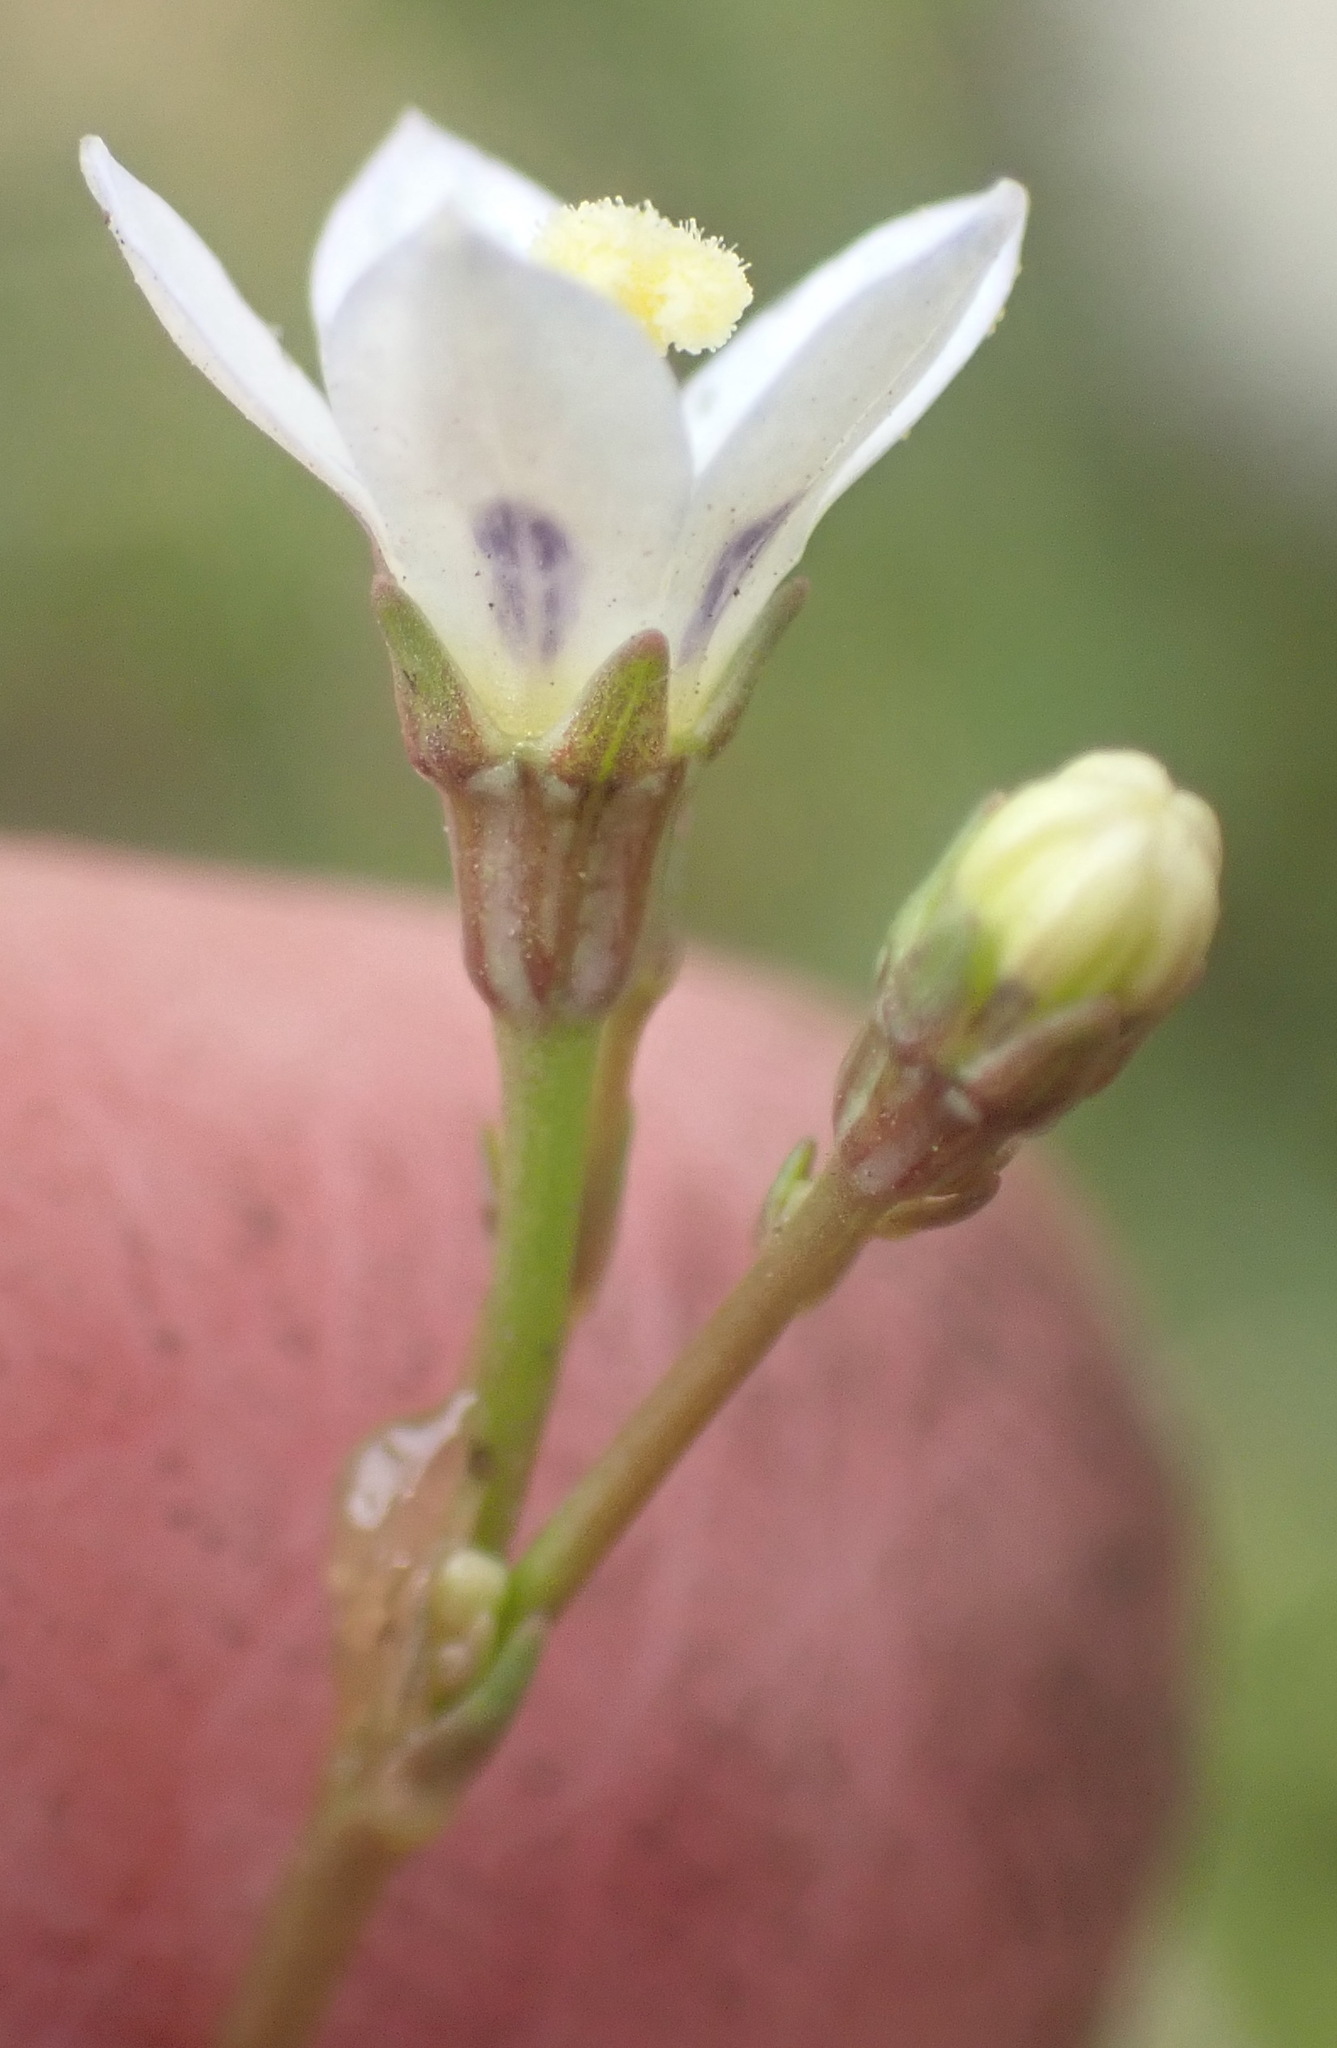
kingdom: Plantae
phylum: Tracheophyta
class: Magnoliopsida
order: Asterales
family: Campanulaceae
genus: Wahlenbergia
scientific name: Wahlenbergia androsacea
